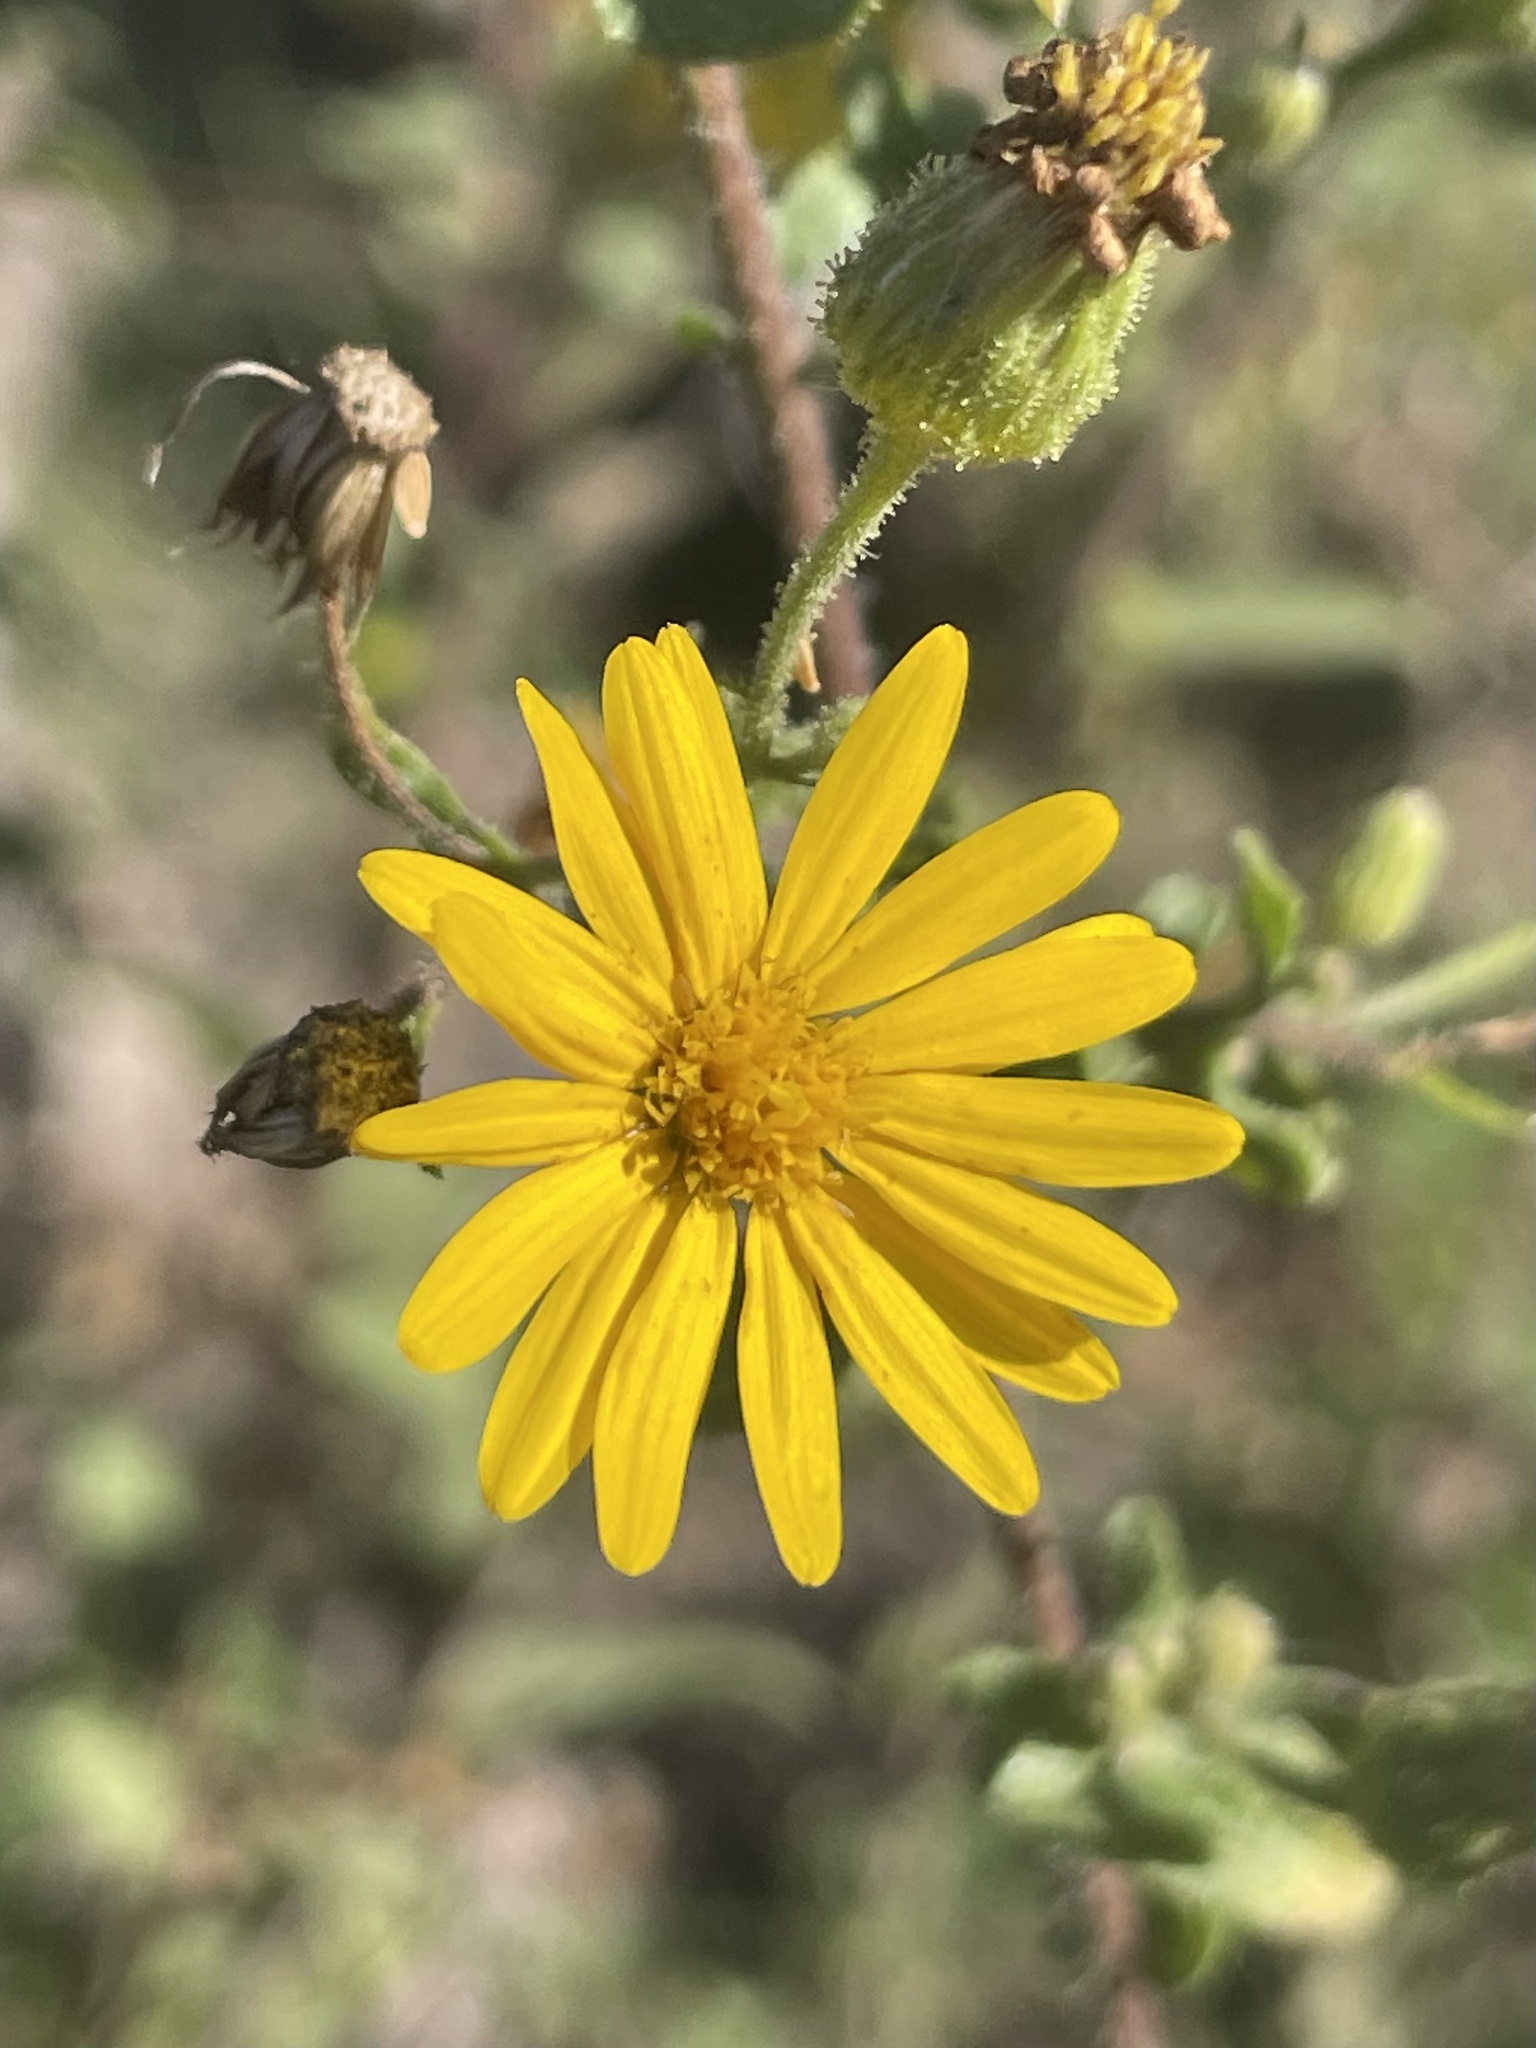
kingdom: Plantae
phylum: Tracheophyta
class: Magnoliopsida
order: Asterales
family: Asteraceae
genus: Heterotheca
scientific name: Heterotheca subaxillaris
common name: Camphorweed
